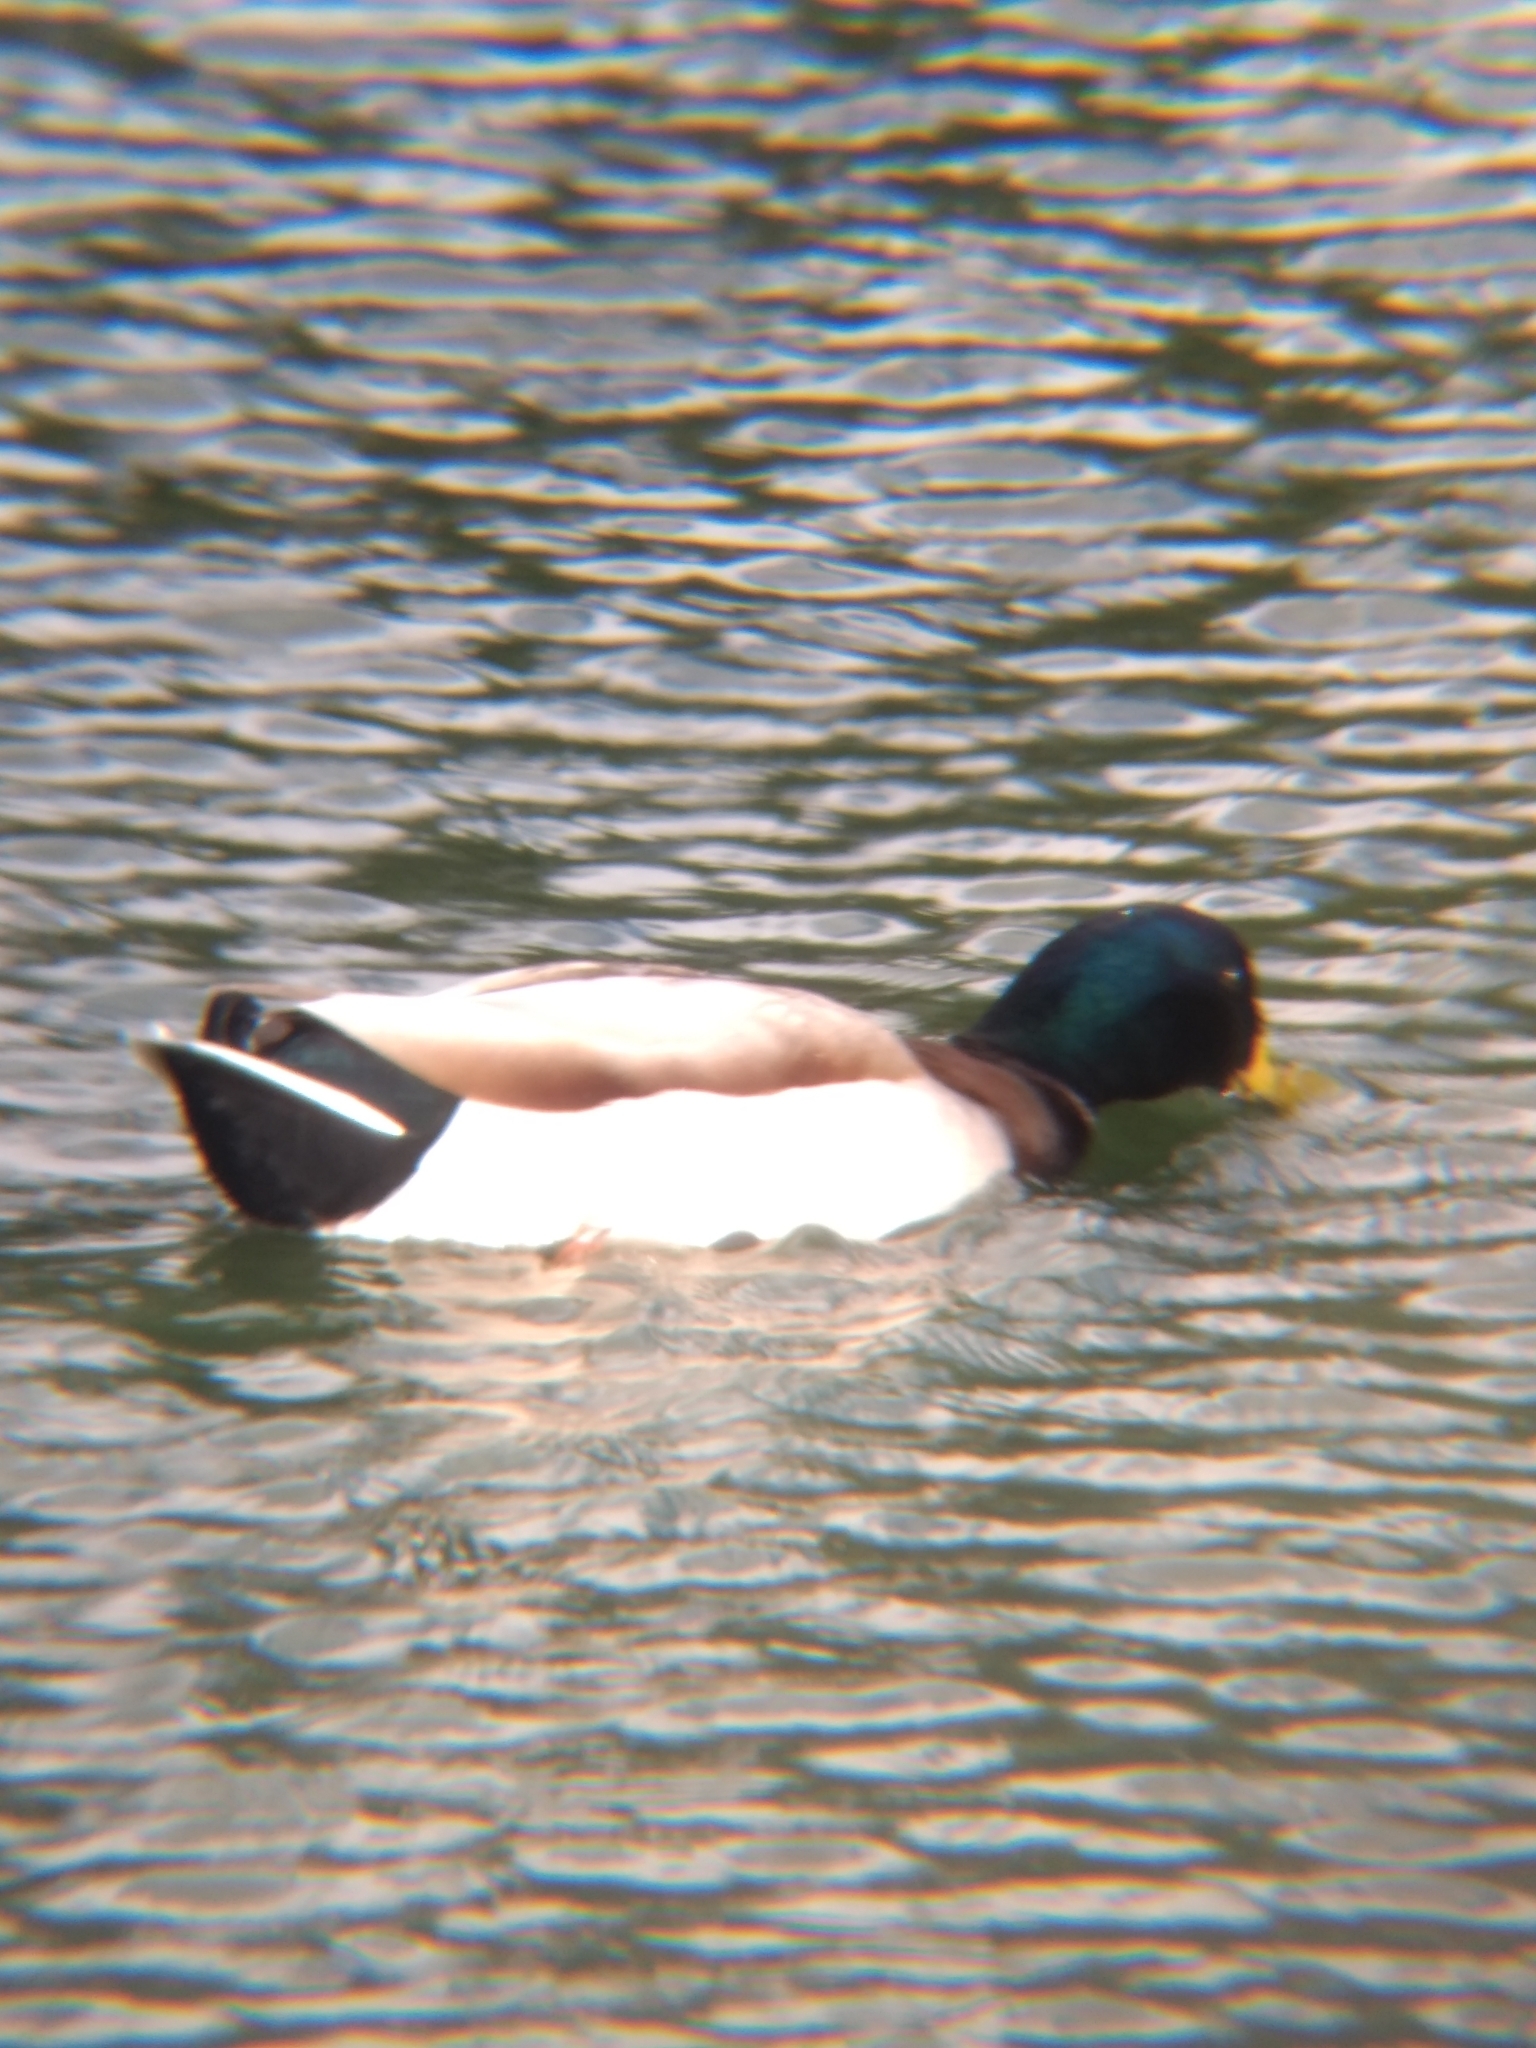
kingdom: Animalia
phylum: Chordata
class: Aves
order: Anseriformes
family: Anatidae
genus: Anas
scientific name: Anas platyrhynchos
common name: Mallard
